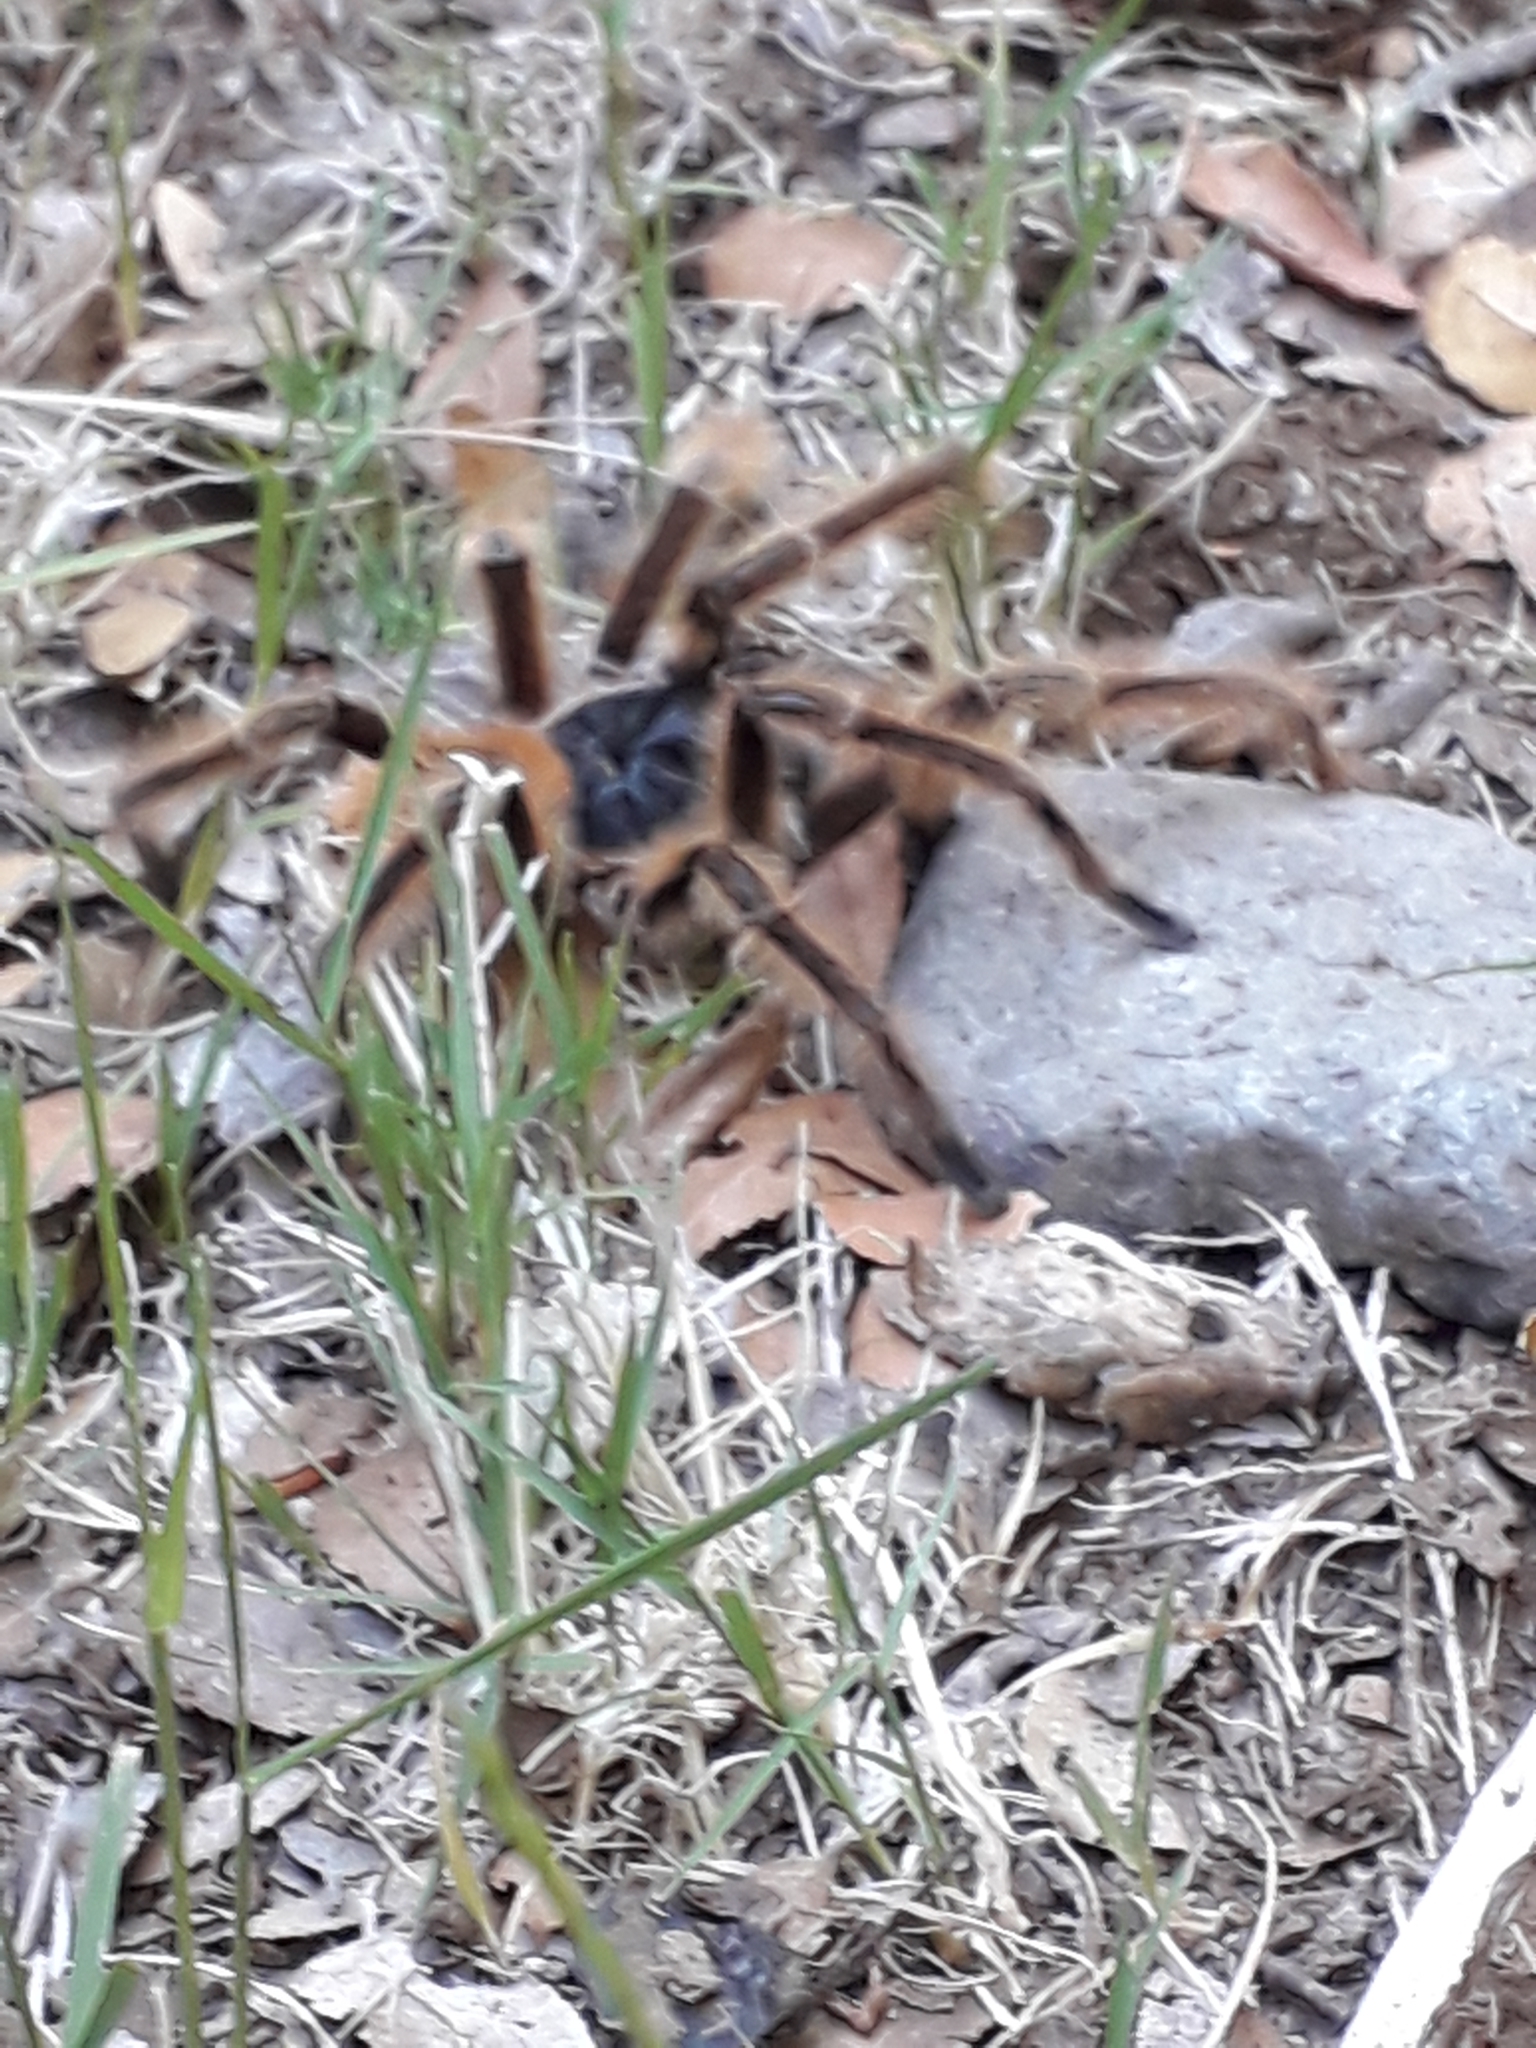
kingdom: Animalia
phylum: Arthropoda
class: Arachnida
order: Araneae
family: Theraphosidae
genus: Phrixotrichus
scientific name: Phrixotrichus vulpinus
